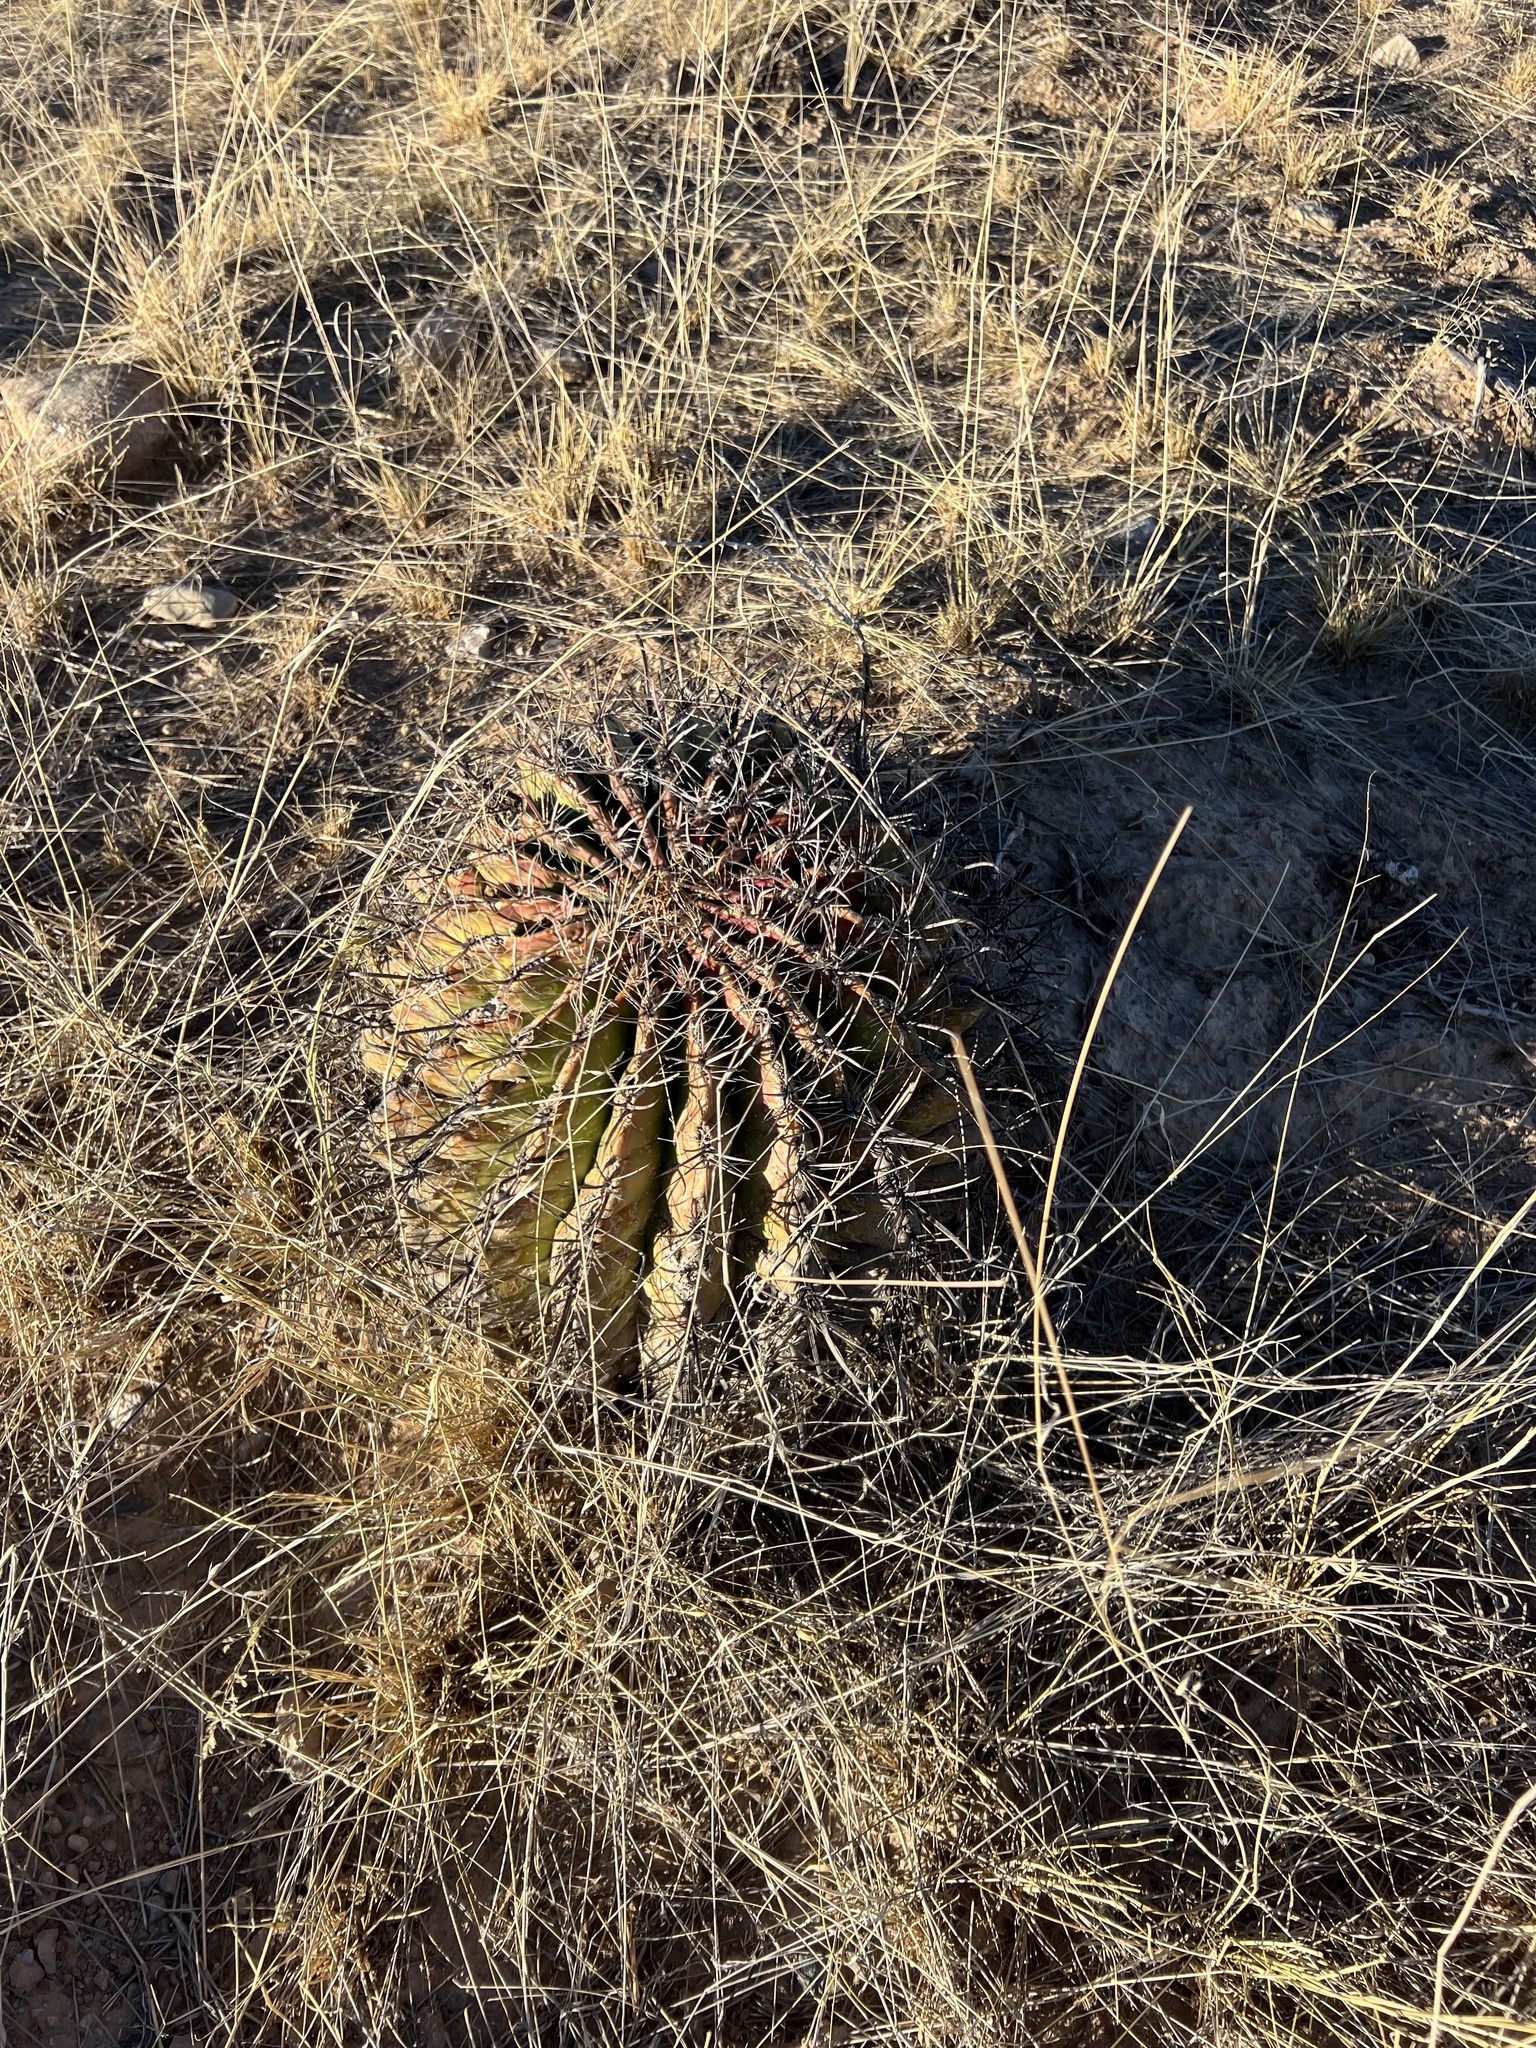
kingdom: Plantae
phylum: Tracheophyta
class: Magnoliopsida
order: Caryophyllales
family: Cactaceae
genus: Ferocactus
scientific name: Ferocactus wislizeni
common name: Candy barrel cactus
